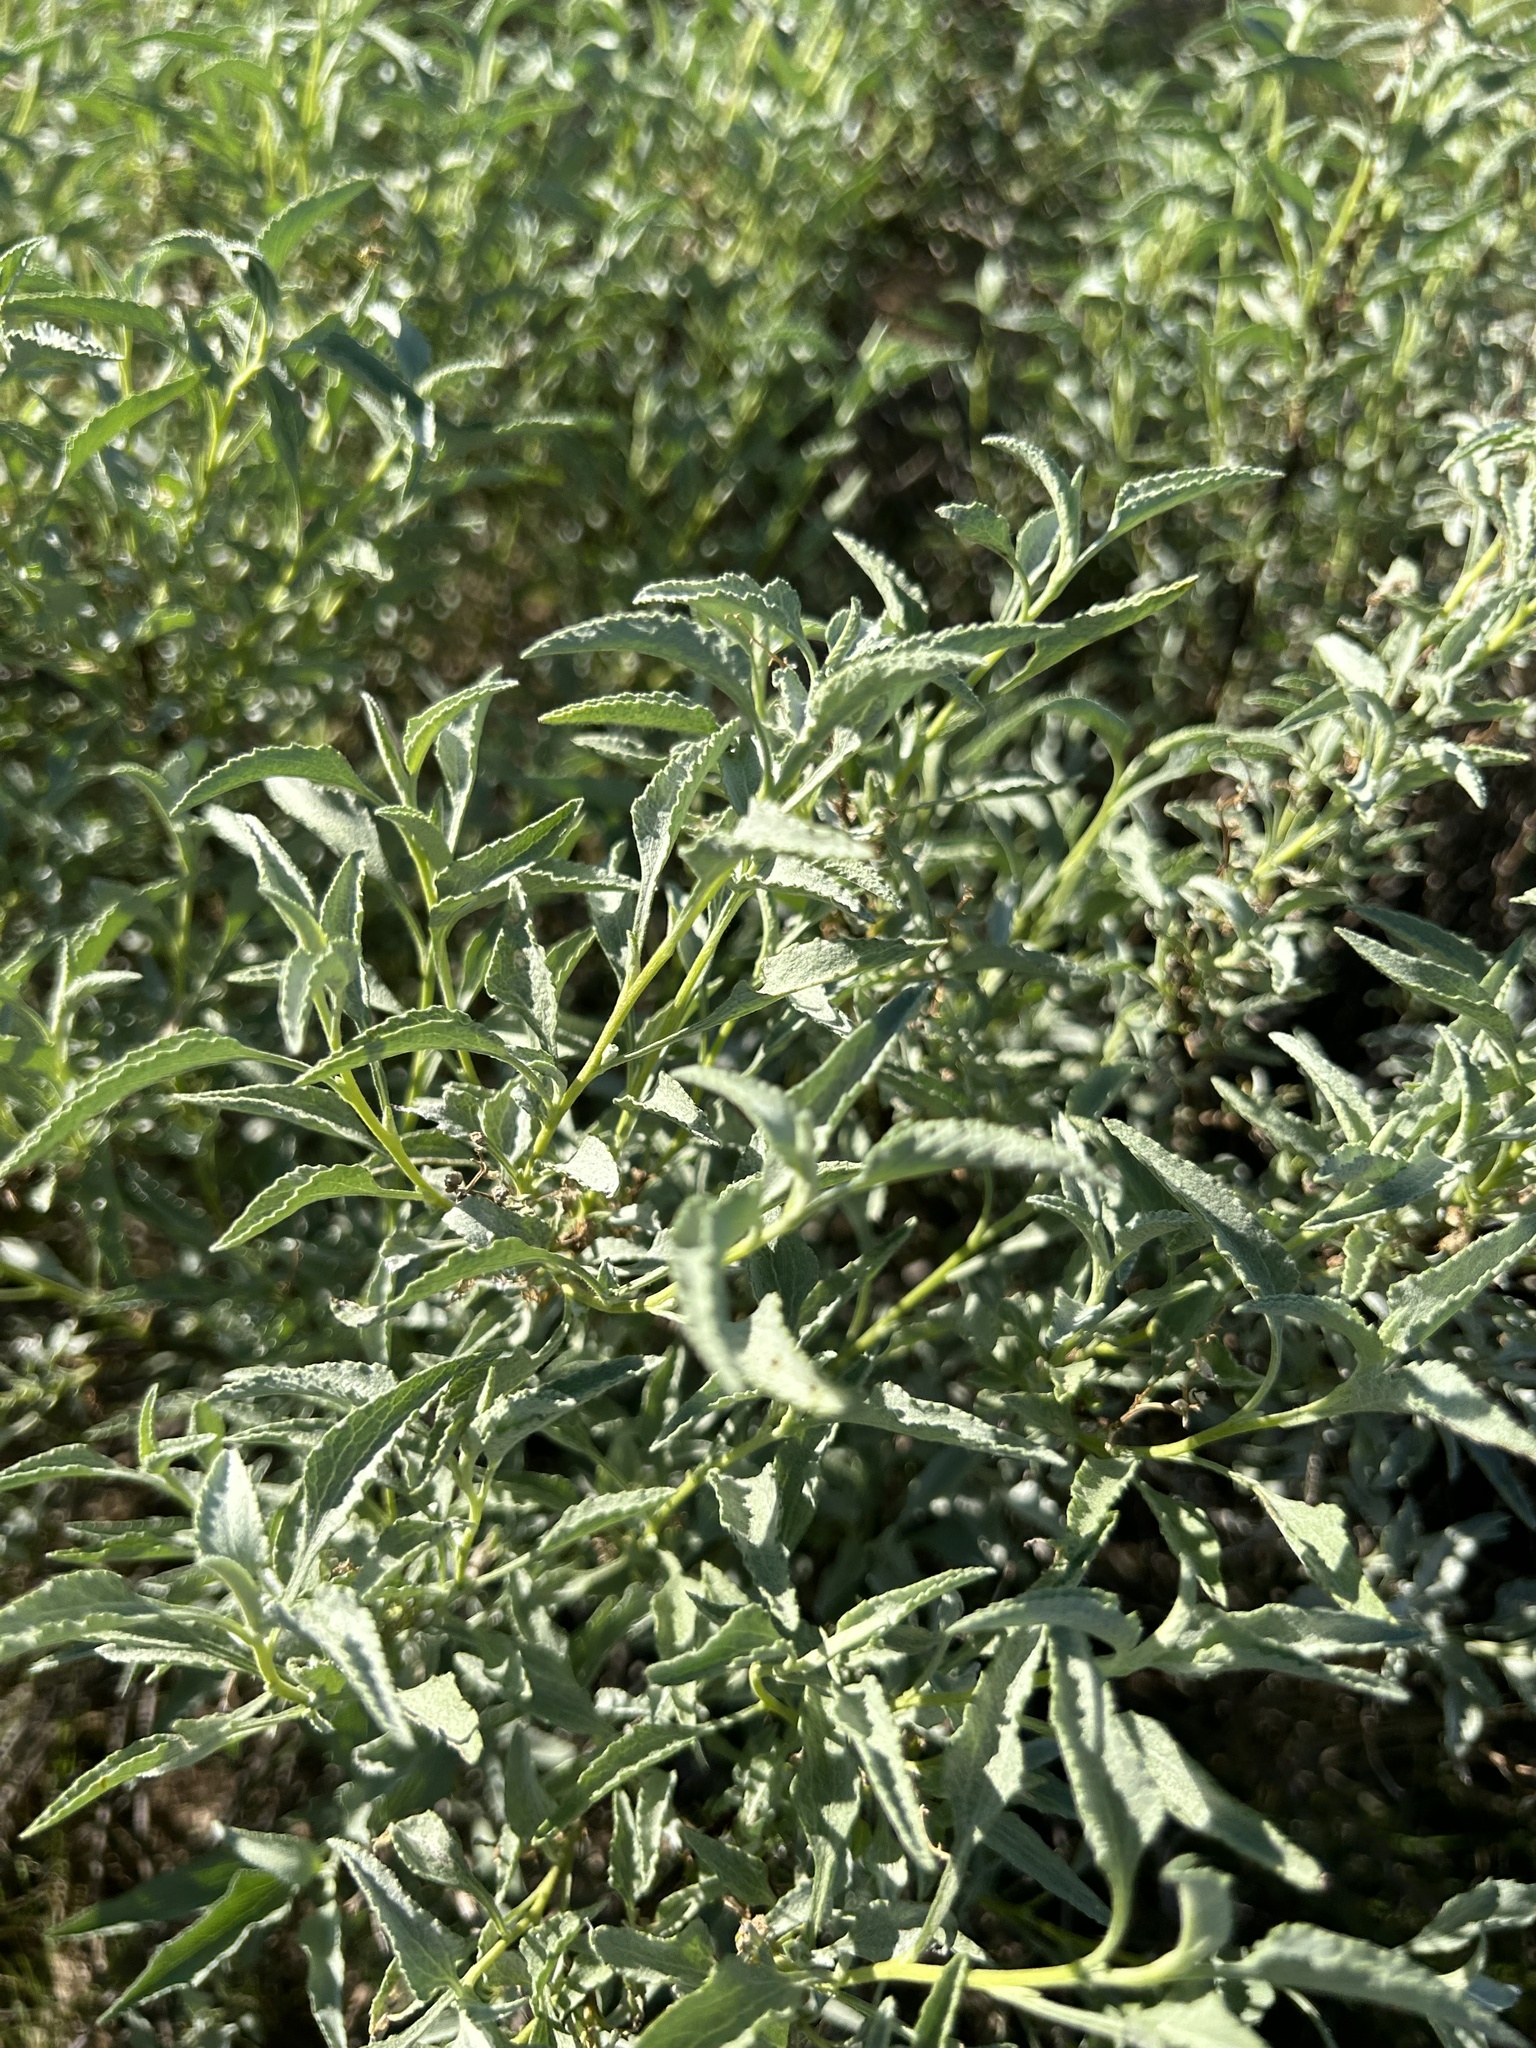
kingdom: Plantae
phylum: Tracheophyta
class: Magnoliopsida
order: Asterales
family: Asteraceae
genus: Ambrosia
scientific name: Ambrosia deltoidea
